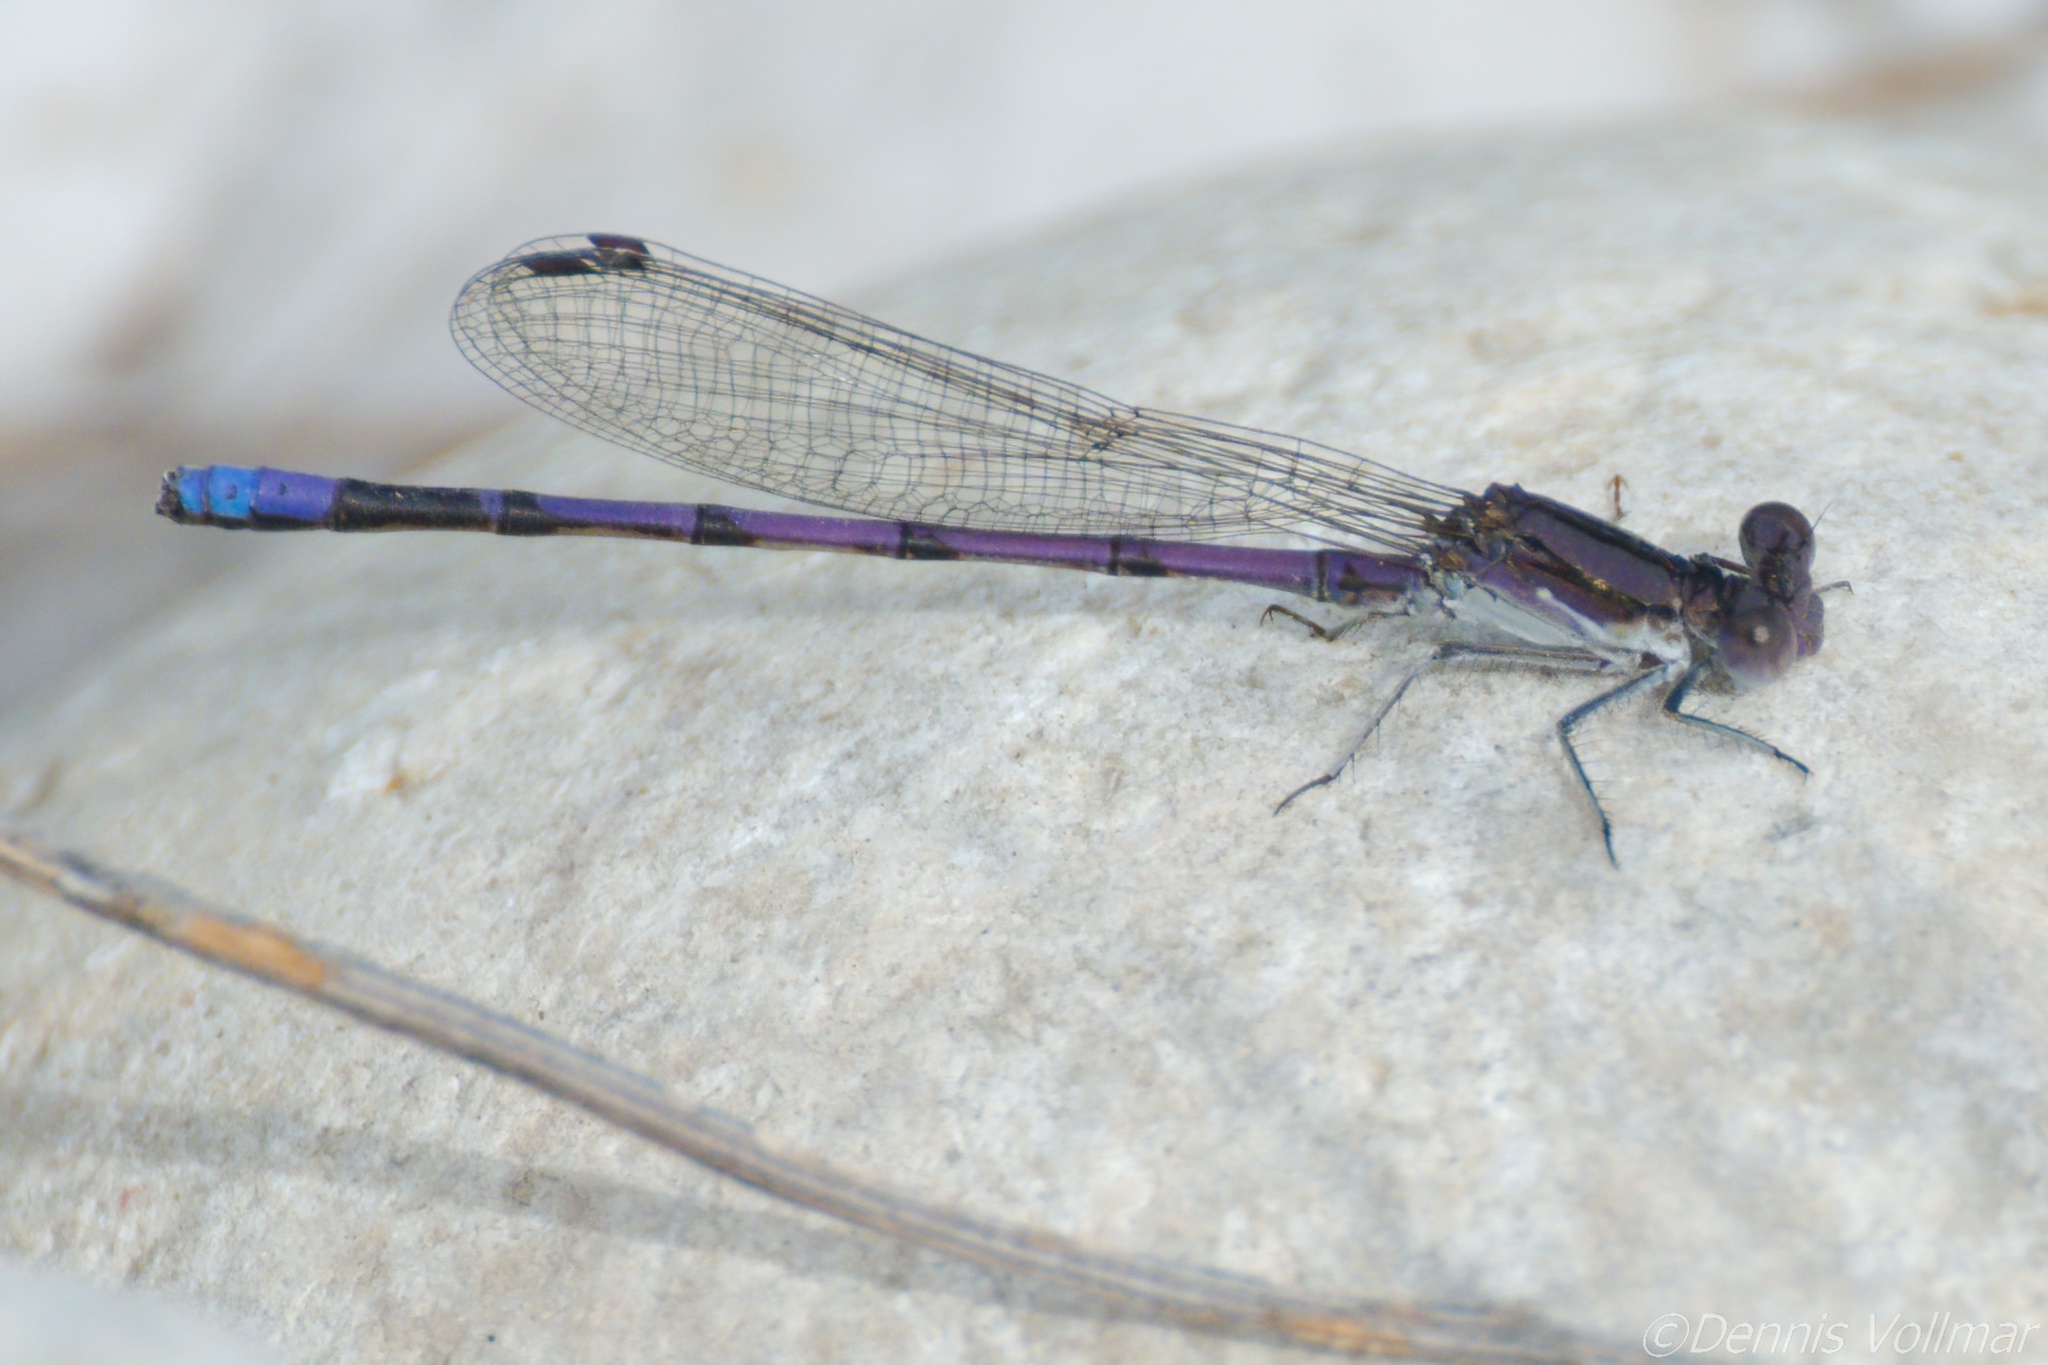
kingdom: Animalia
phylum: Arthropoda
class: Insecta
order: Odonata
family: Coenagrionidae
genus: Argia
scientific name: Argia fumipennis
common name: Variable dancer
